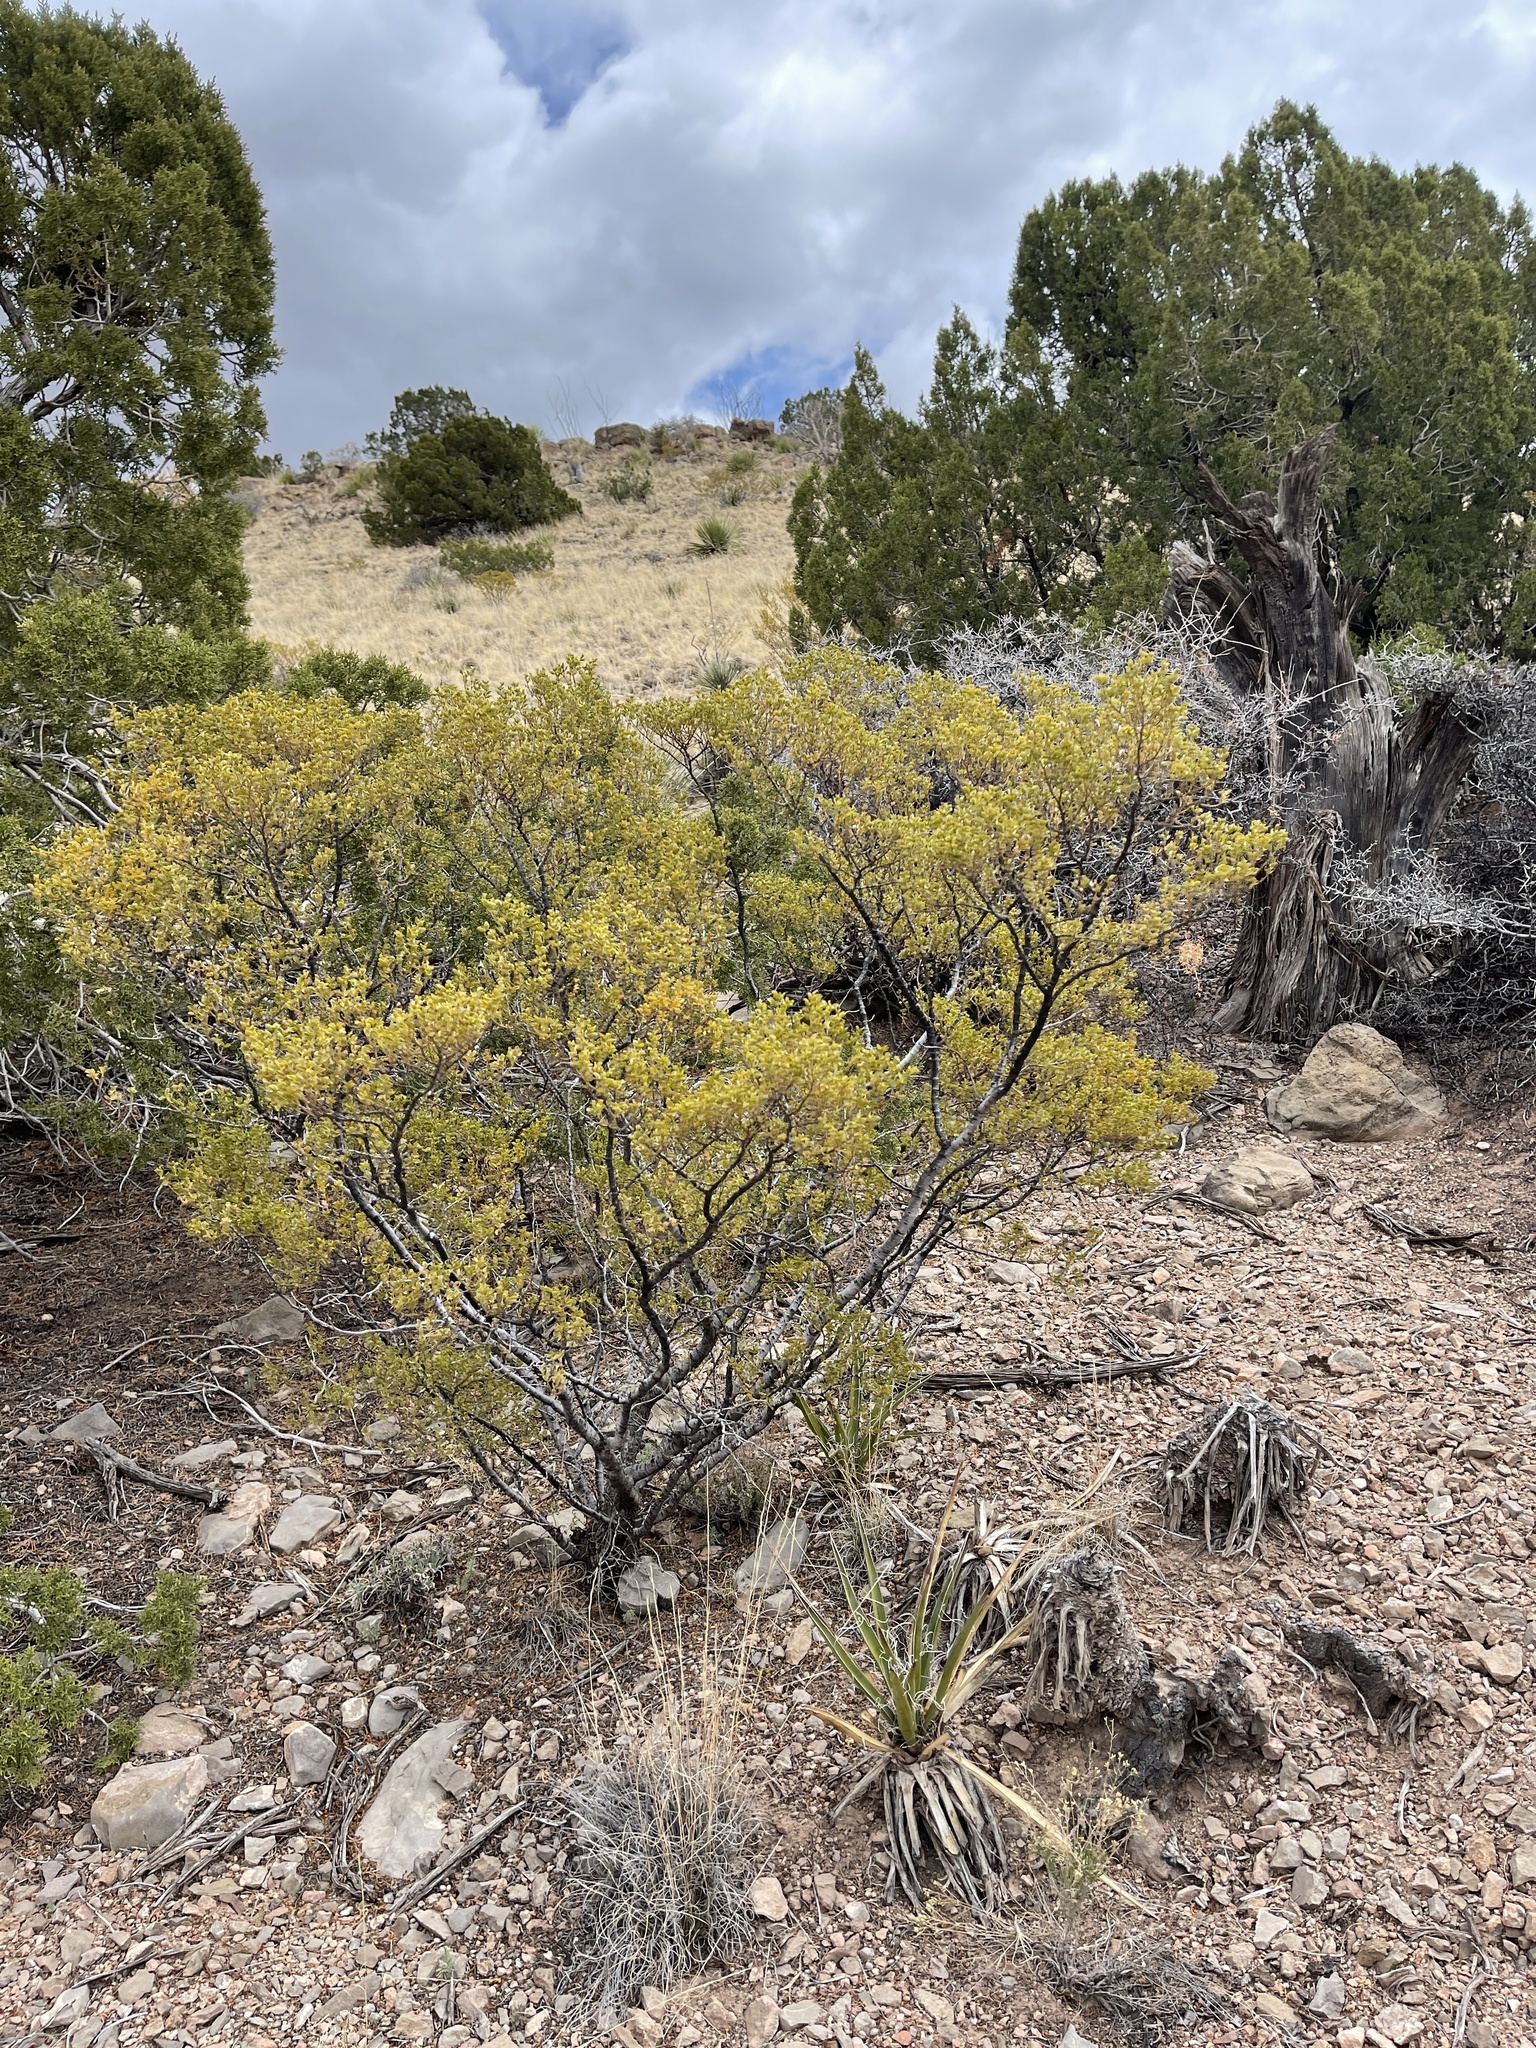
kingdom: Plantae
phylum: Tracheophyta
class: Magnoliopsida
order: Zygophyllales
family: Zygophyllaceae
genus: Larrea
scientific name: Larrea tridentata
